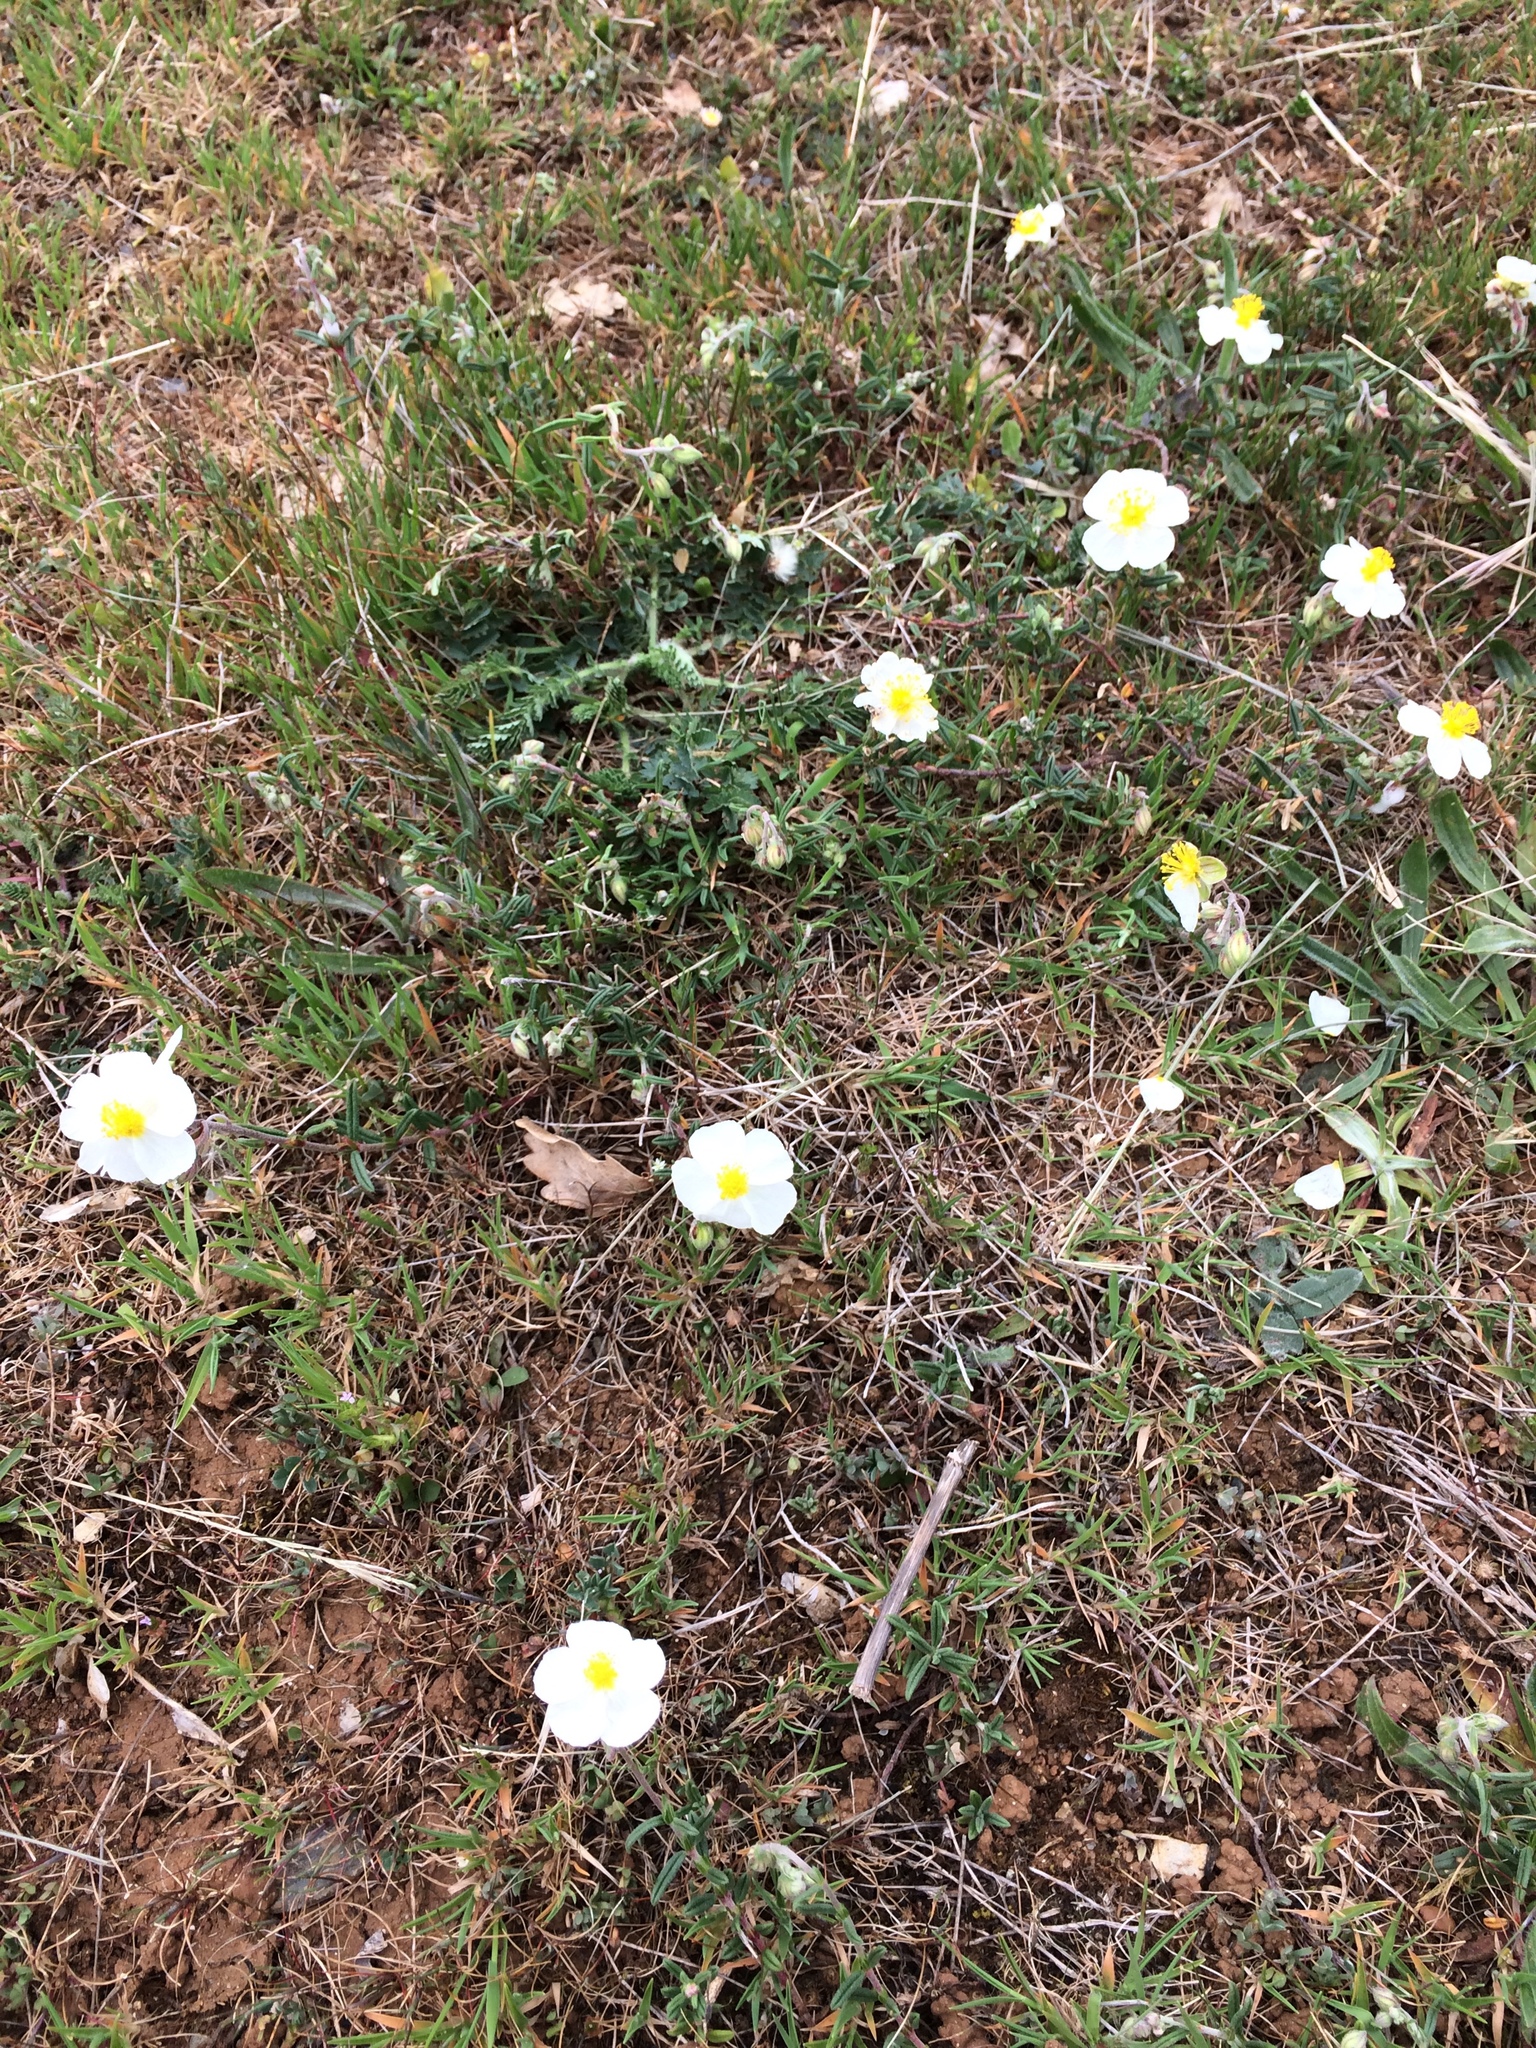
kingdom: Plantae
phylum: Tracheophyta
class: Magnoliopsida
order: Malvales
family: Cistaceae
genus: Helianthemum
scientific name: Helianthemum apenninum
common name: White rock-rose
